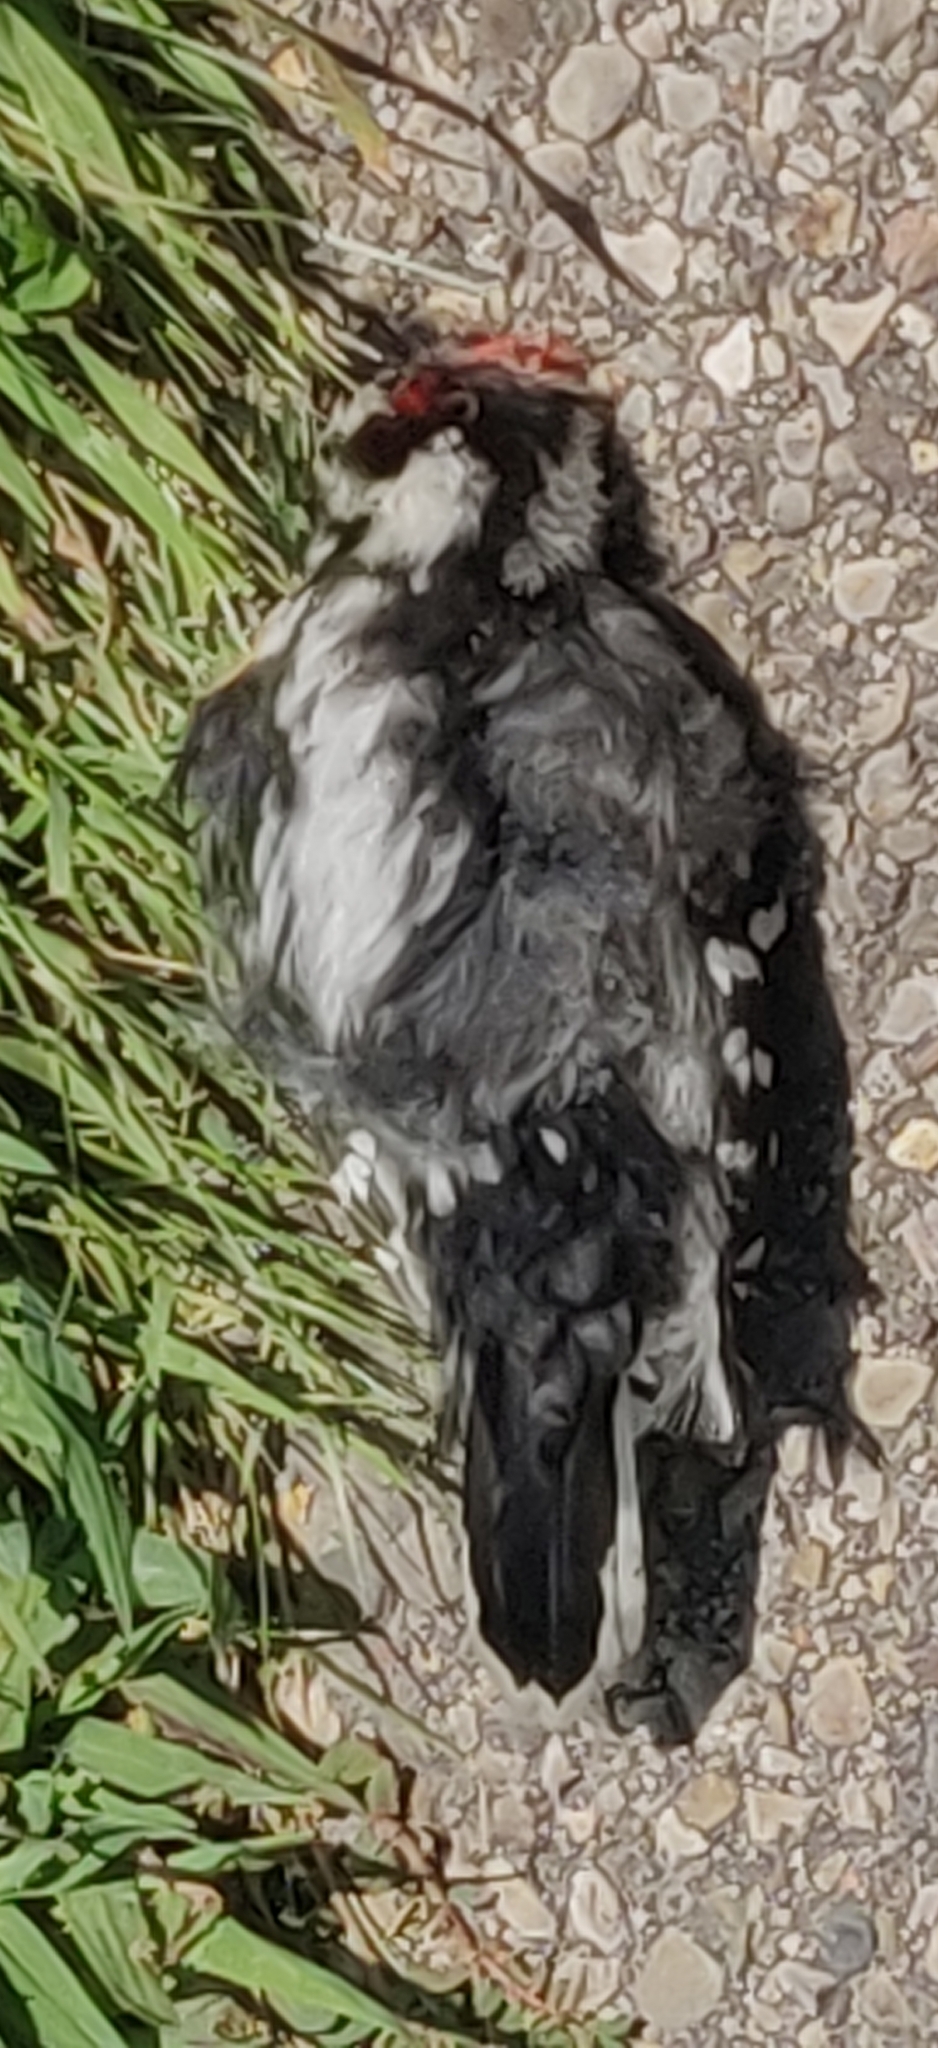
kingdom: Animalia
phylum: Chordata
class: Aves
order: Piciformes
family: Picidae
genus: Dryobates
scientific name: Dryobates pubescens
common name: Downy woodpecker
